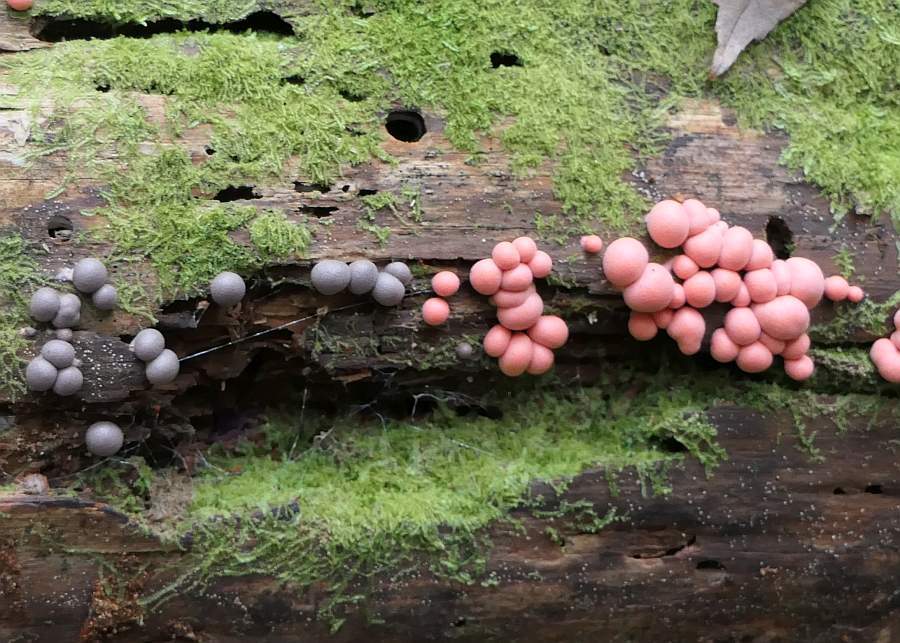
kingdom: Protozoa
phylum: Mycetozoa
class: Myxomycetes
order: Cribrariales
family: Tubiferaceae
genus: Lycogala
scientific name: Lycogala epidendrum
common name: Wolf's milk
